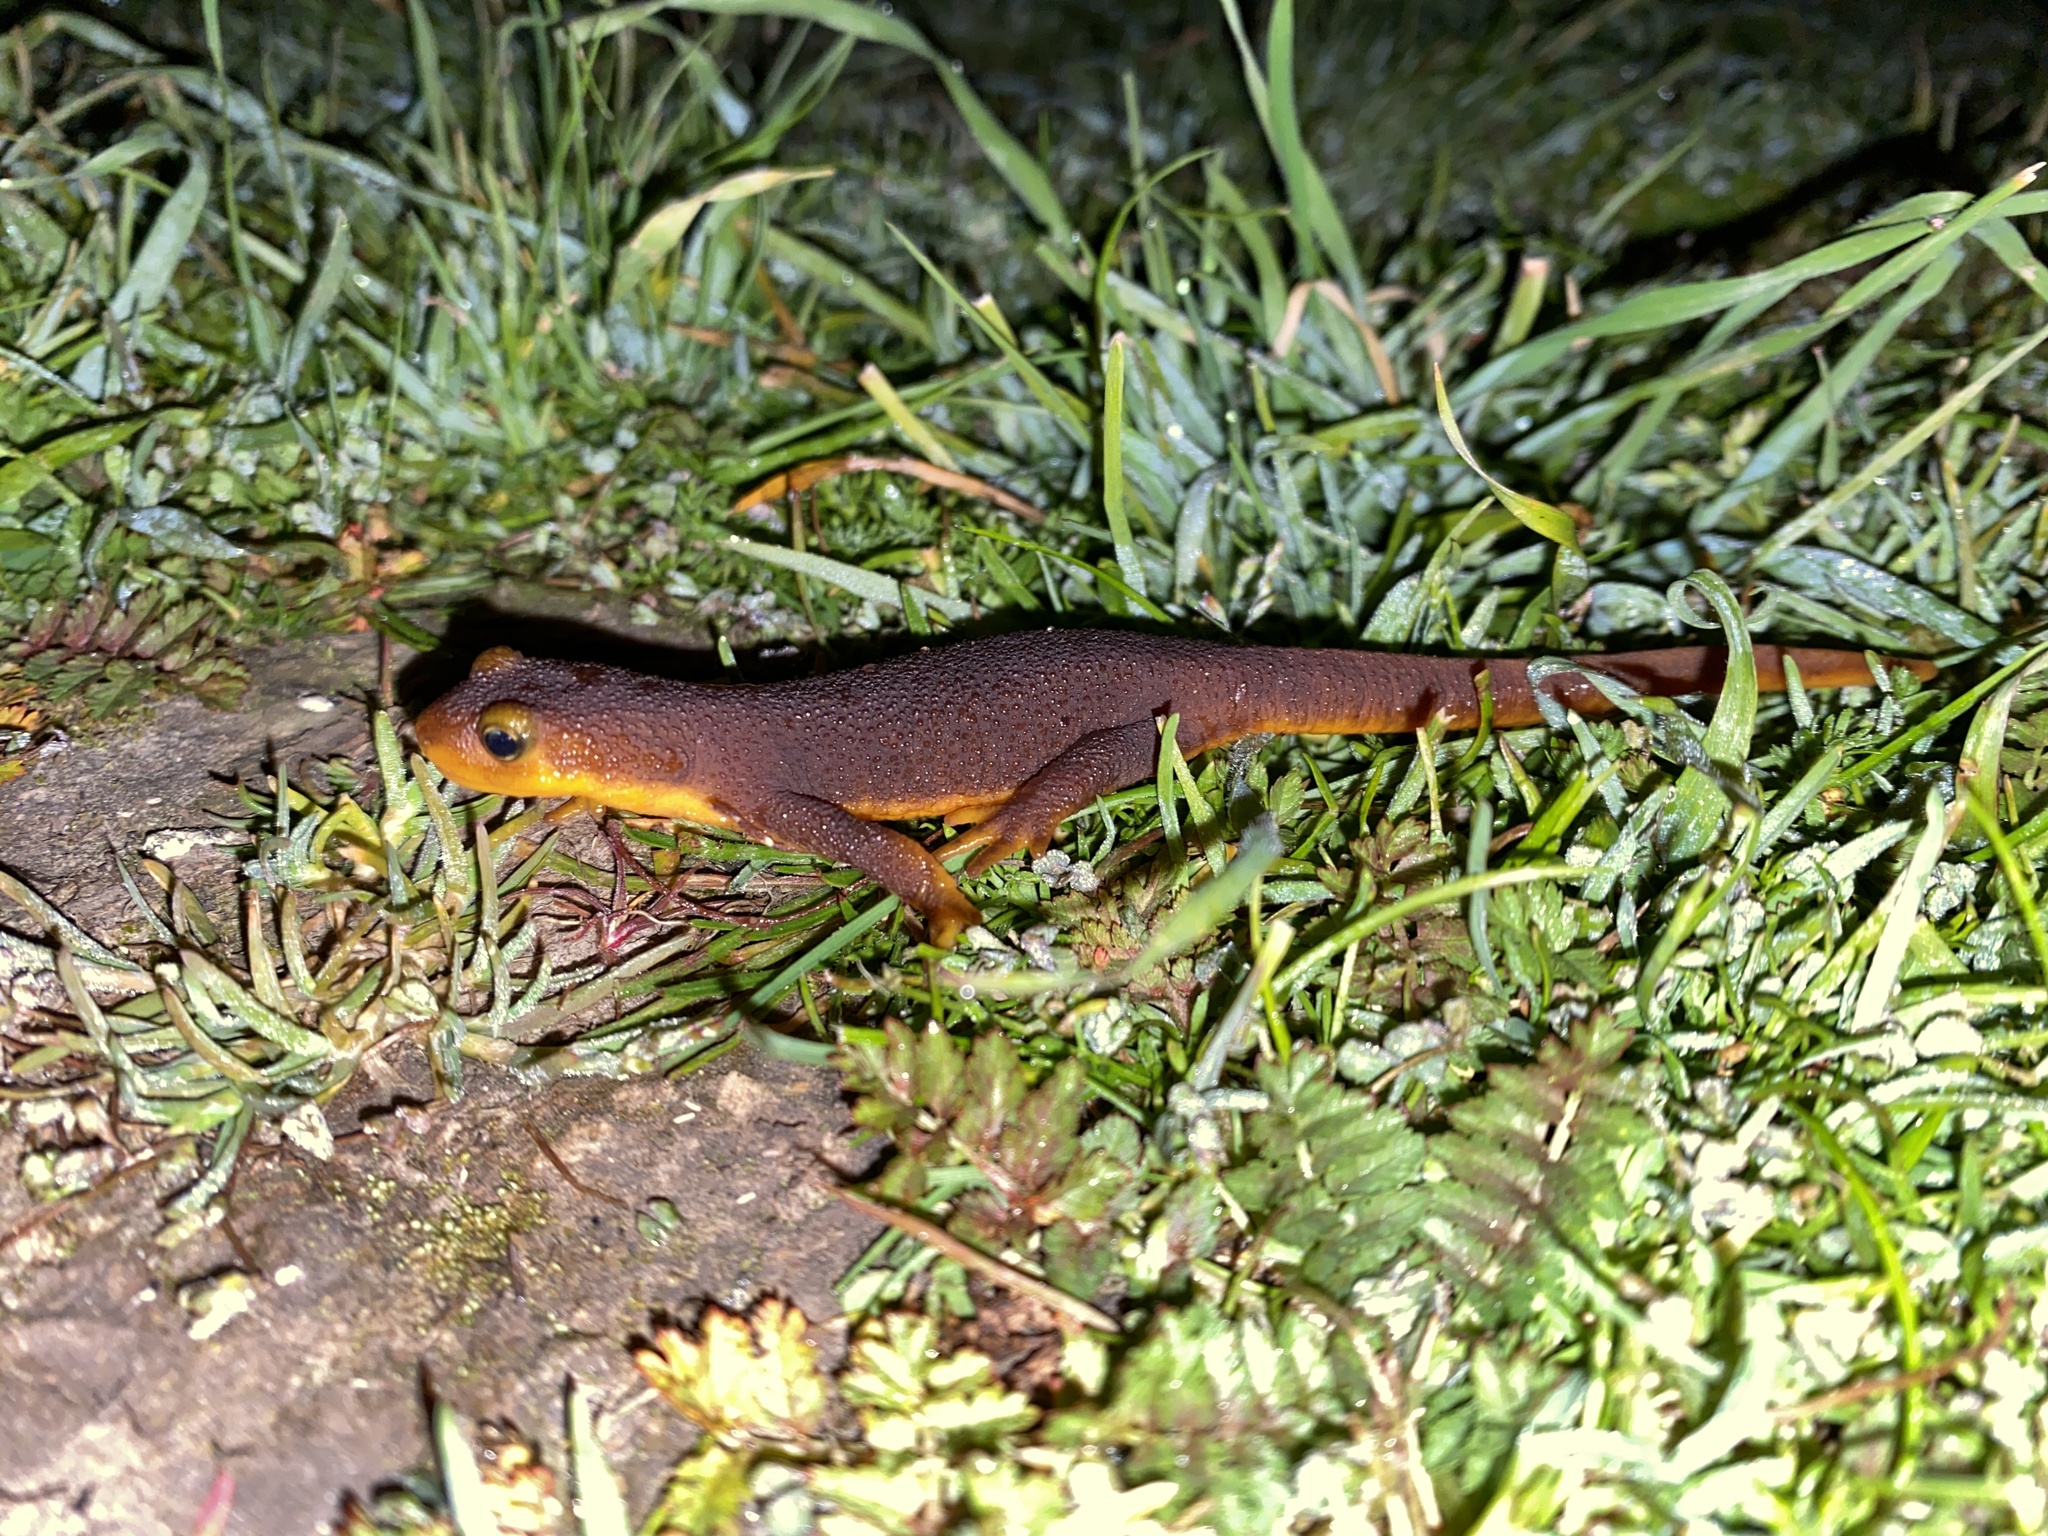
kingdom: Animalia
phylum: Chordata
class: Amphibia
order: Caudata
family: Salamandridae
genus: Taricha
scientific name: Taricha torosa
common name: California newt
